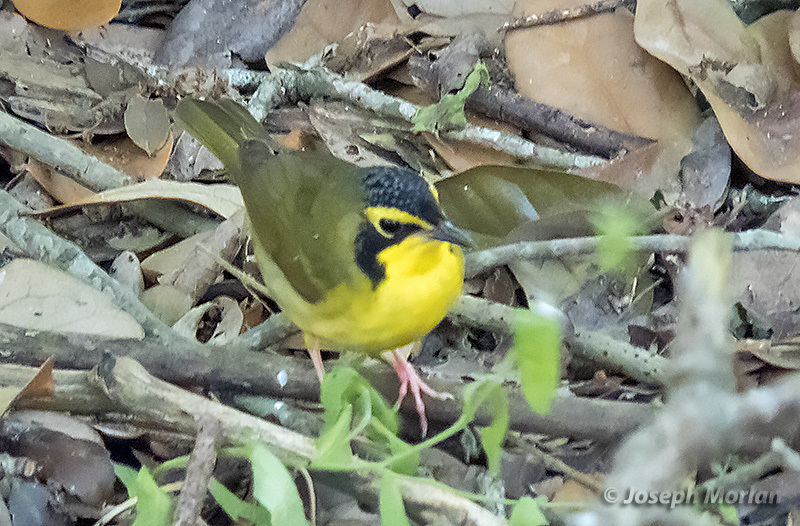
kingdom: Animalia
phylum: Chordata
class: Aves
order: Passeriformes
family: Parulidae
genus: Geothlypis
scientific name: Geothlypis formosa
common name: Kentucky warbler
